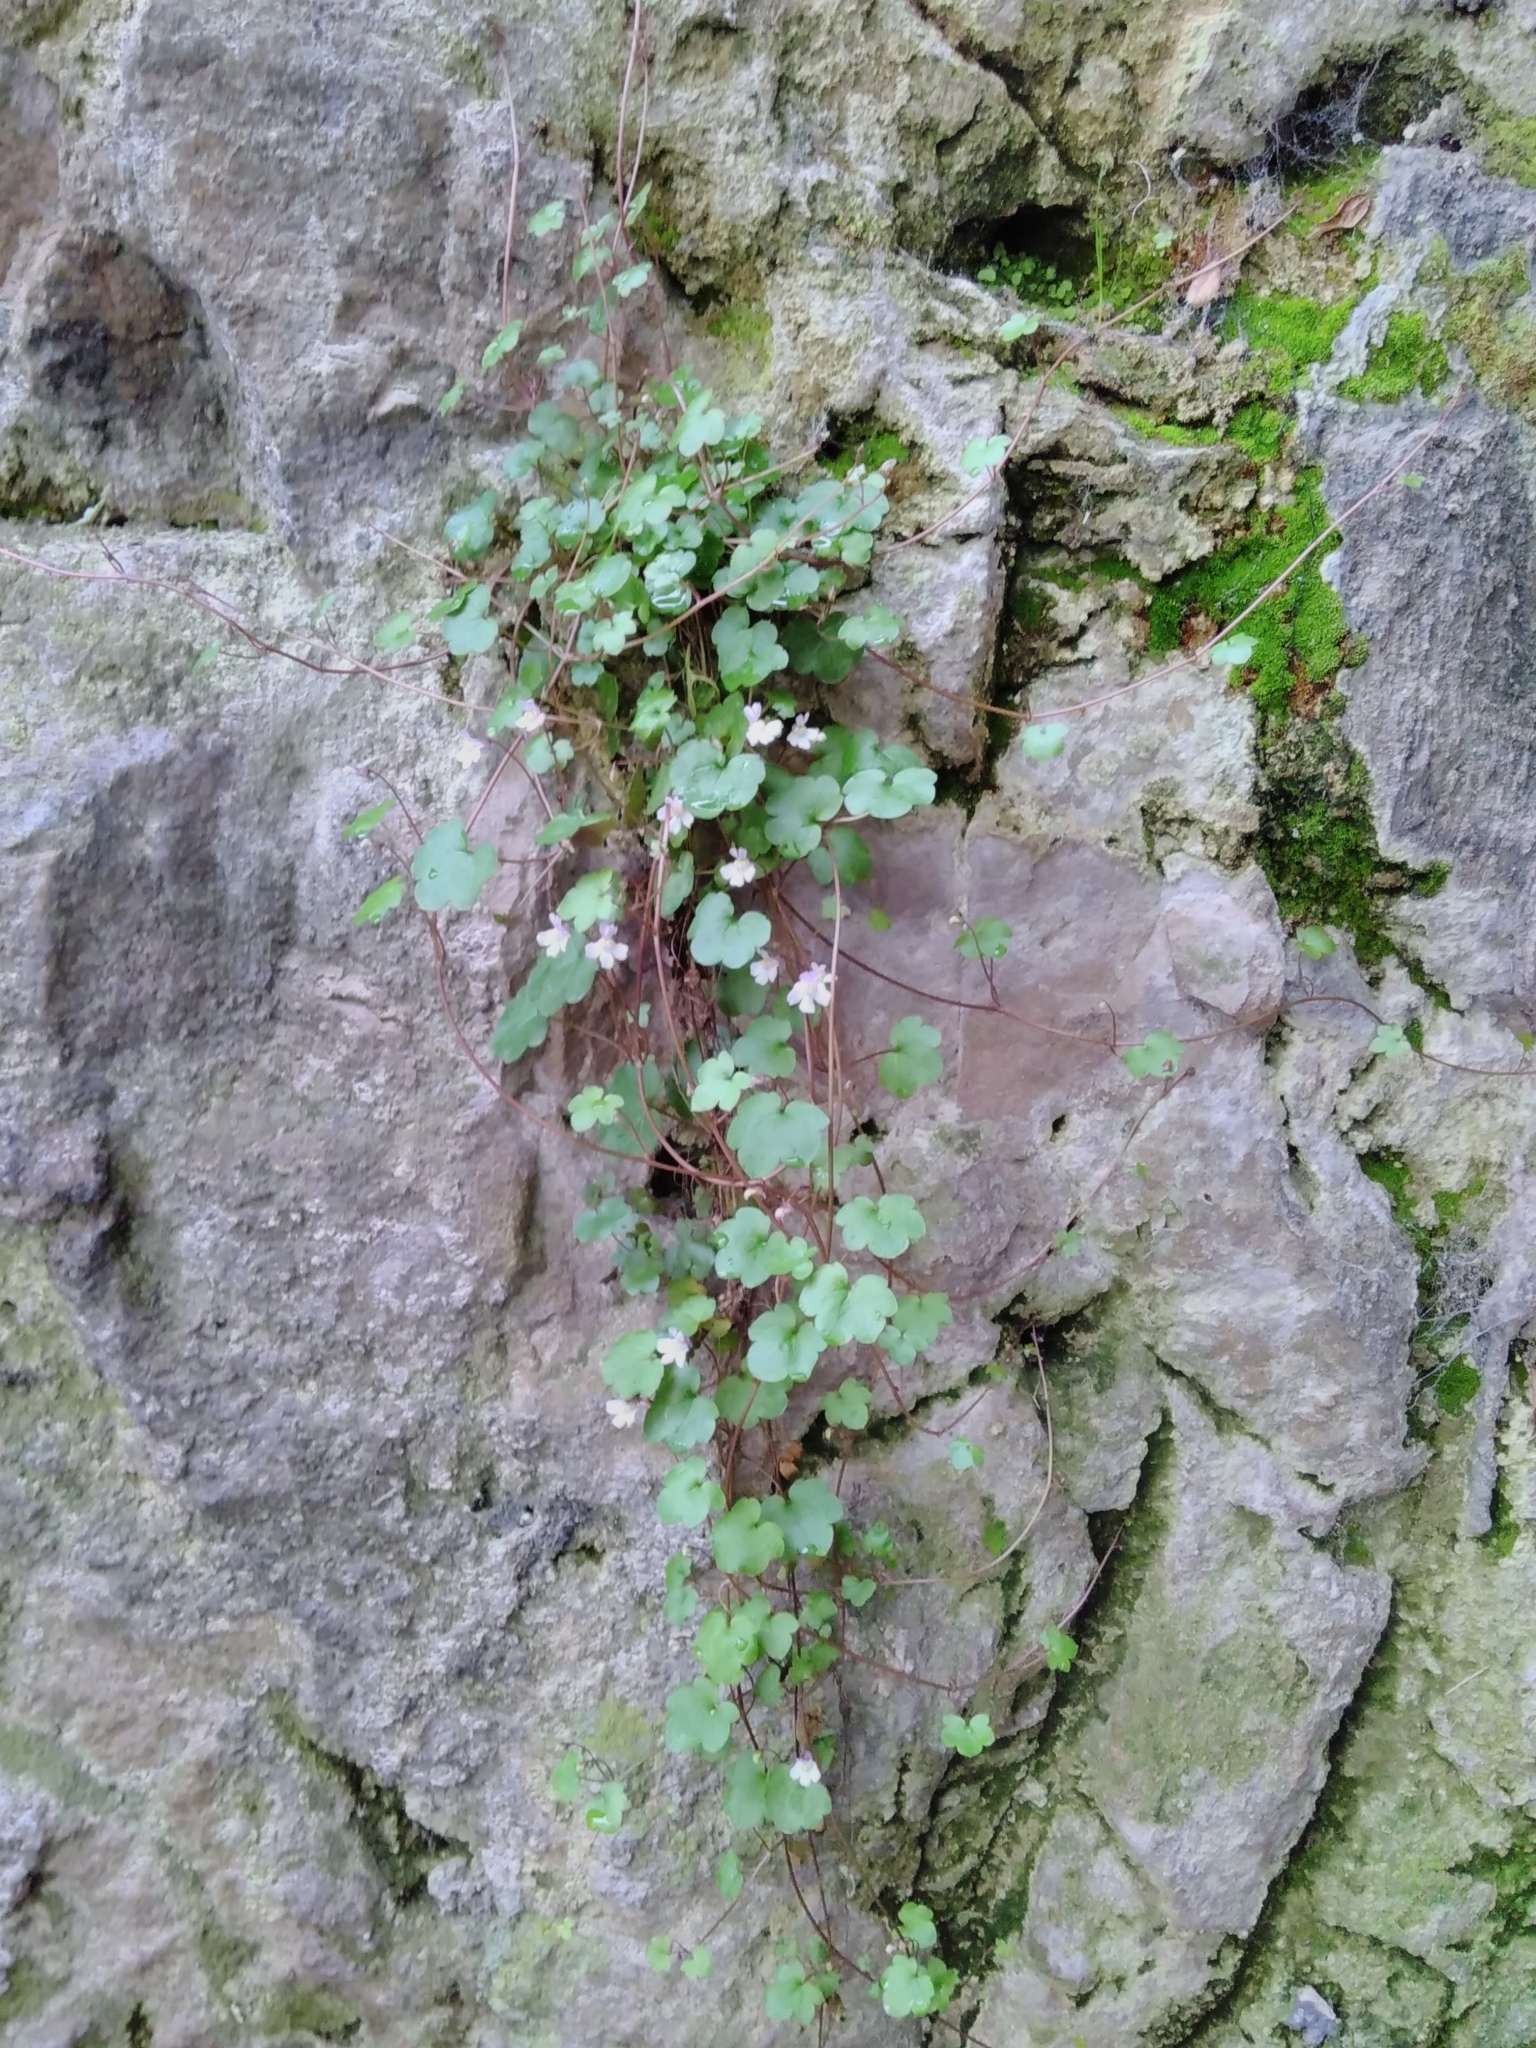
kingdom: Plantae
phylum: Tracheophyta
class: Magnoliopsida
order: Lamiales
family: Plantaginaceae
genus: Cymbalaria
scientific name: Cymbalaria muralis
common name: Ivy-leaved toadflax
